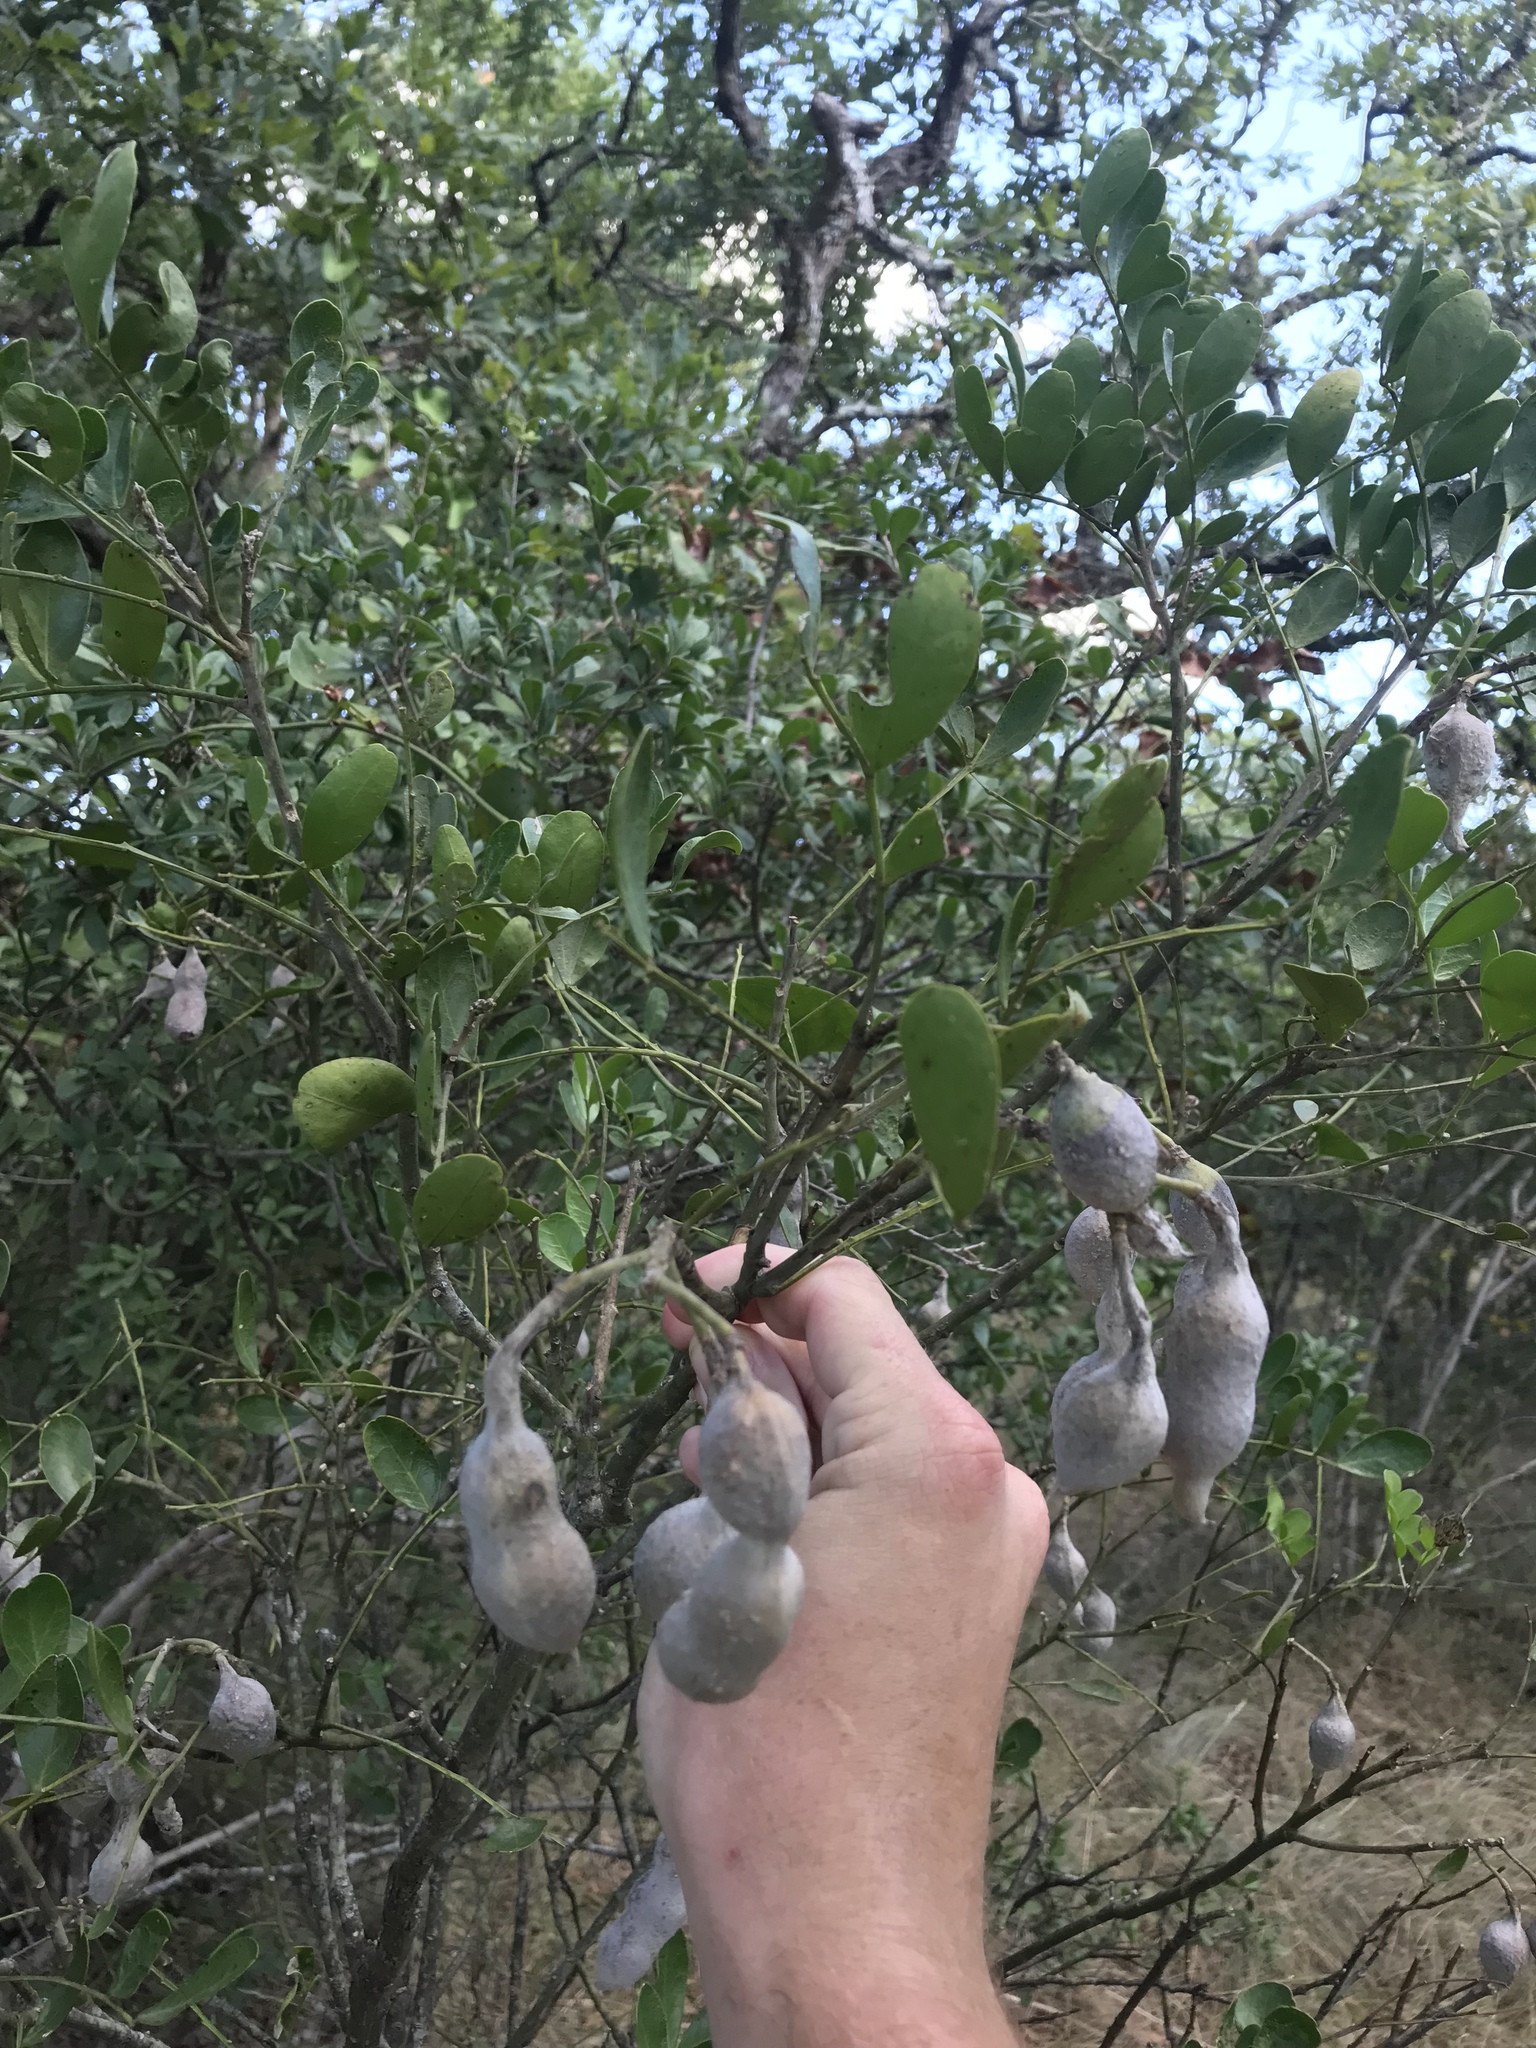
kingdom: Plantae
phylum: Tracheophyta
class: Magnoliopsida
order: Fabales
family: Fabaceae
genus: Dermatophyllum
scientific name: Dermatophyllum secundiflorum
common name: Texas-mountain-laurel
